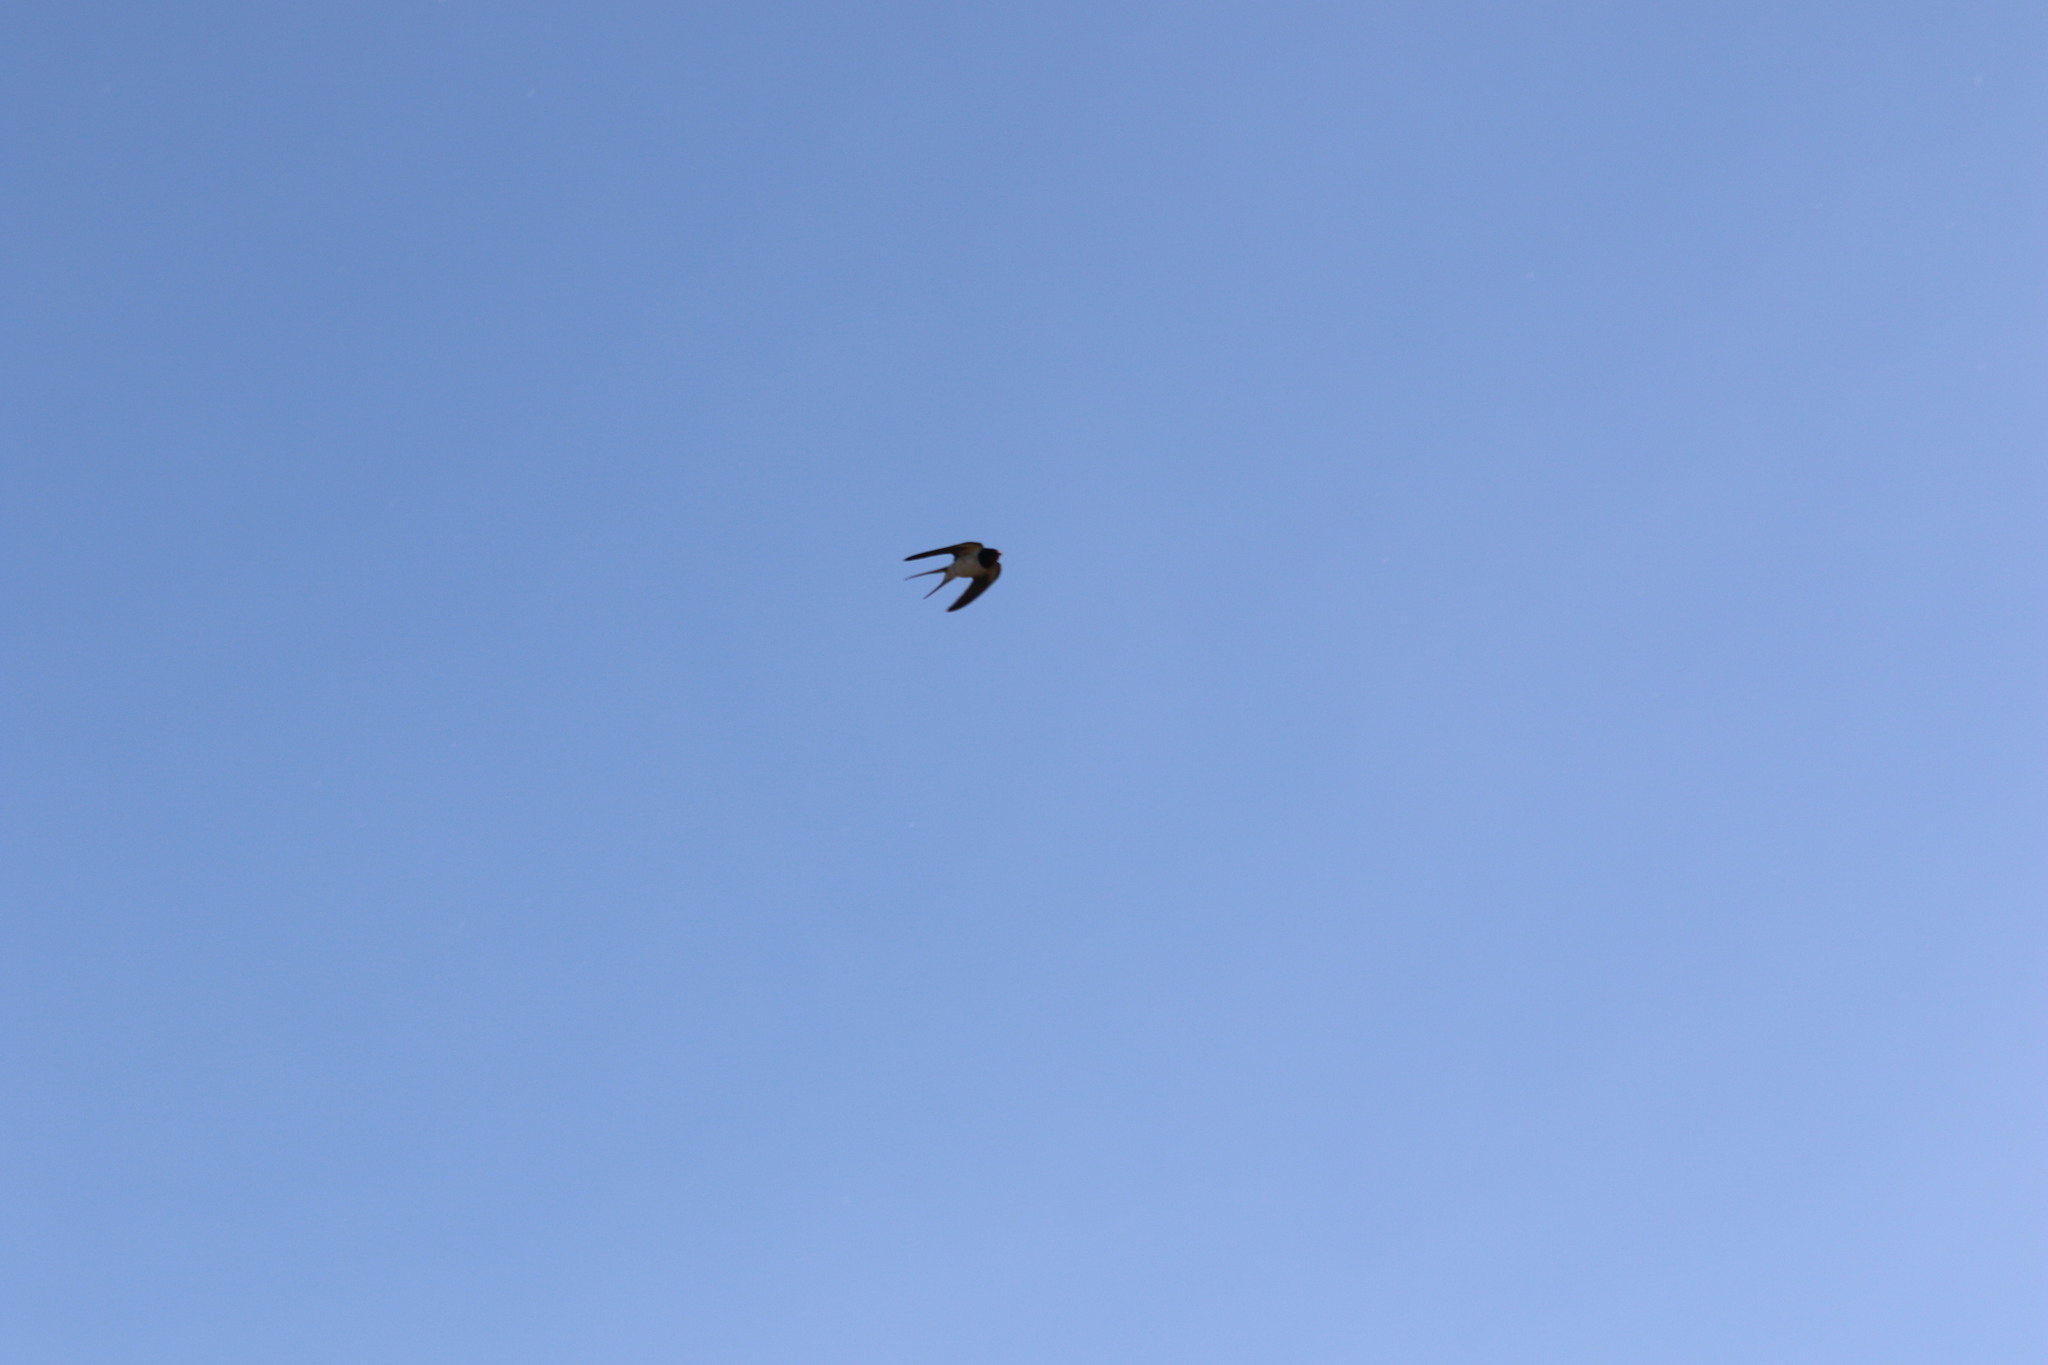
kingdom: Animalia
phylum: Chordata
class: Aves
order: Passeriformes
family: Hirundinidae
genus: Hirundo
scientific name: Hirundo rustica
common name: Barn swallow
